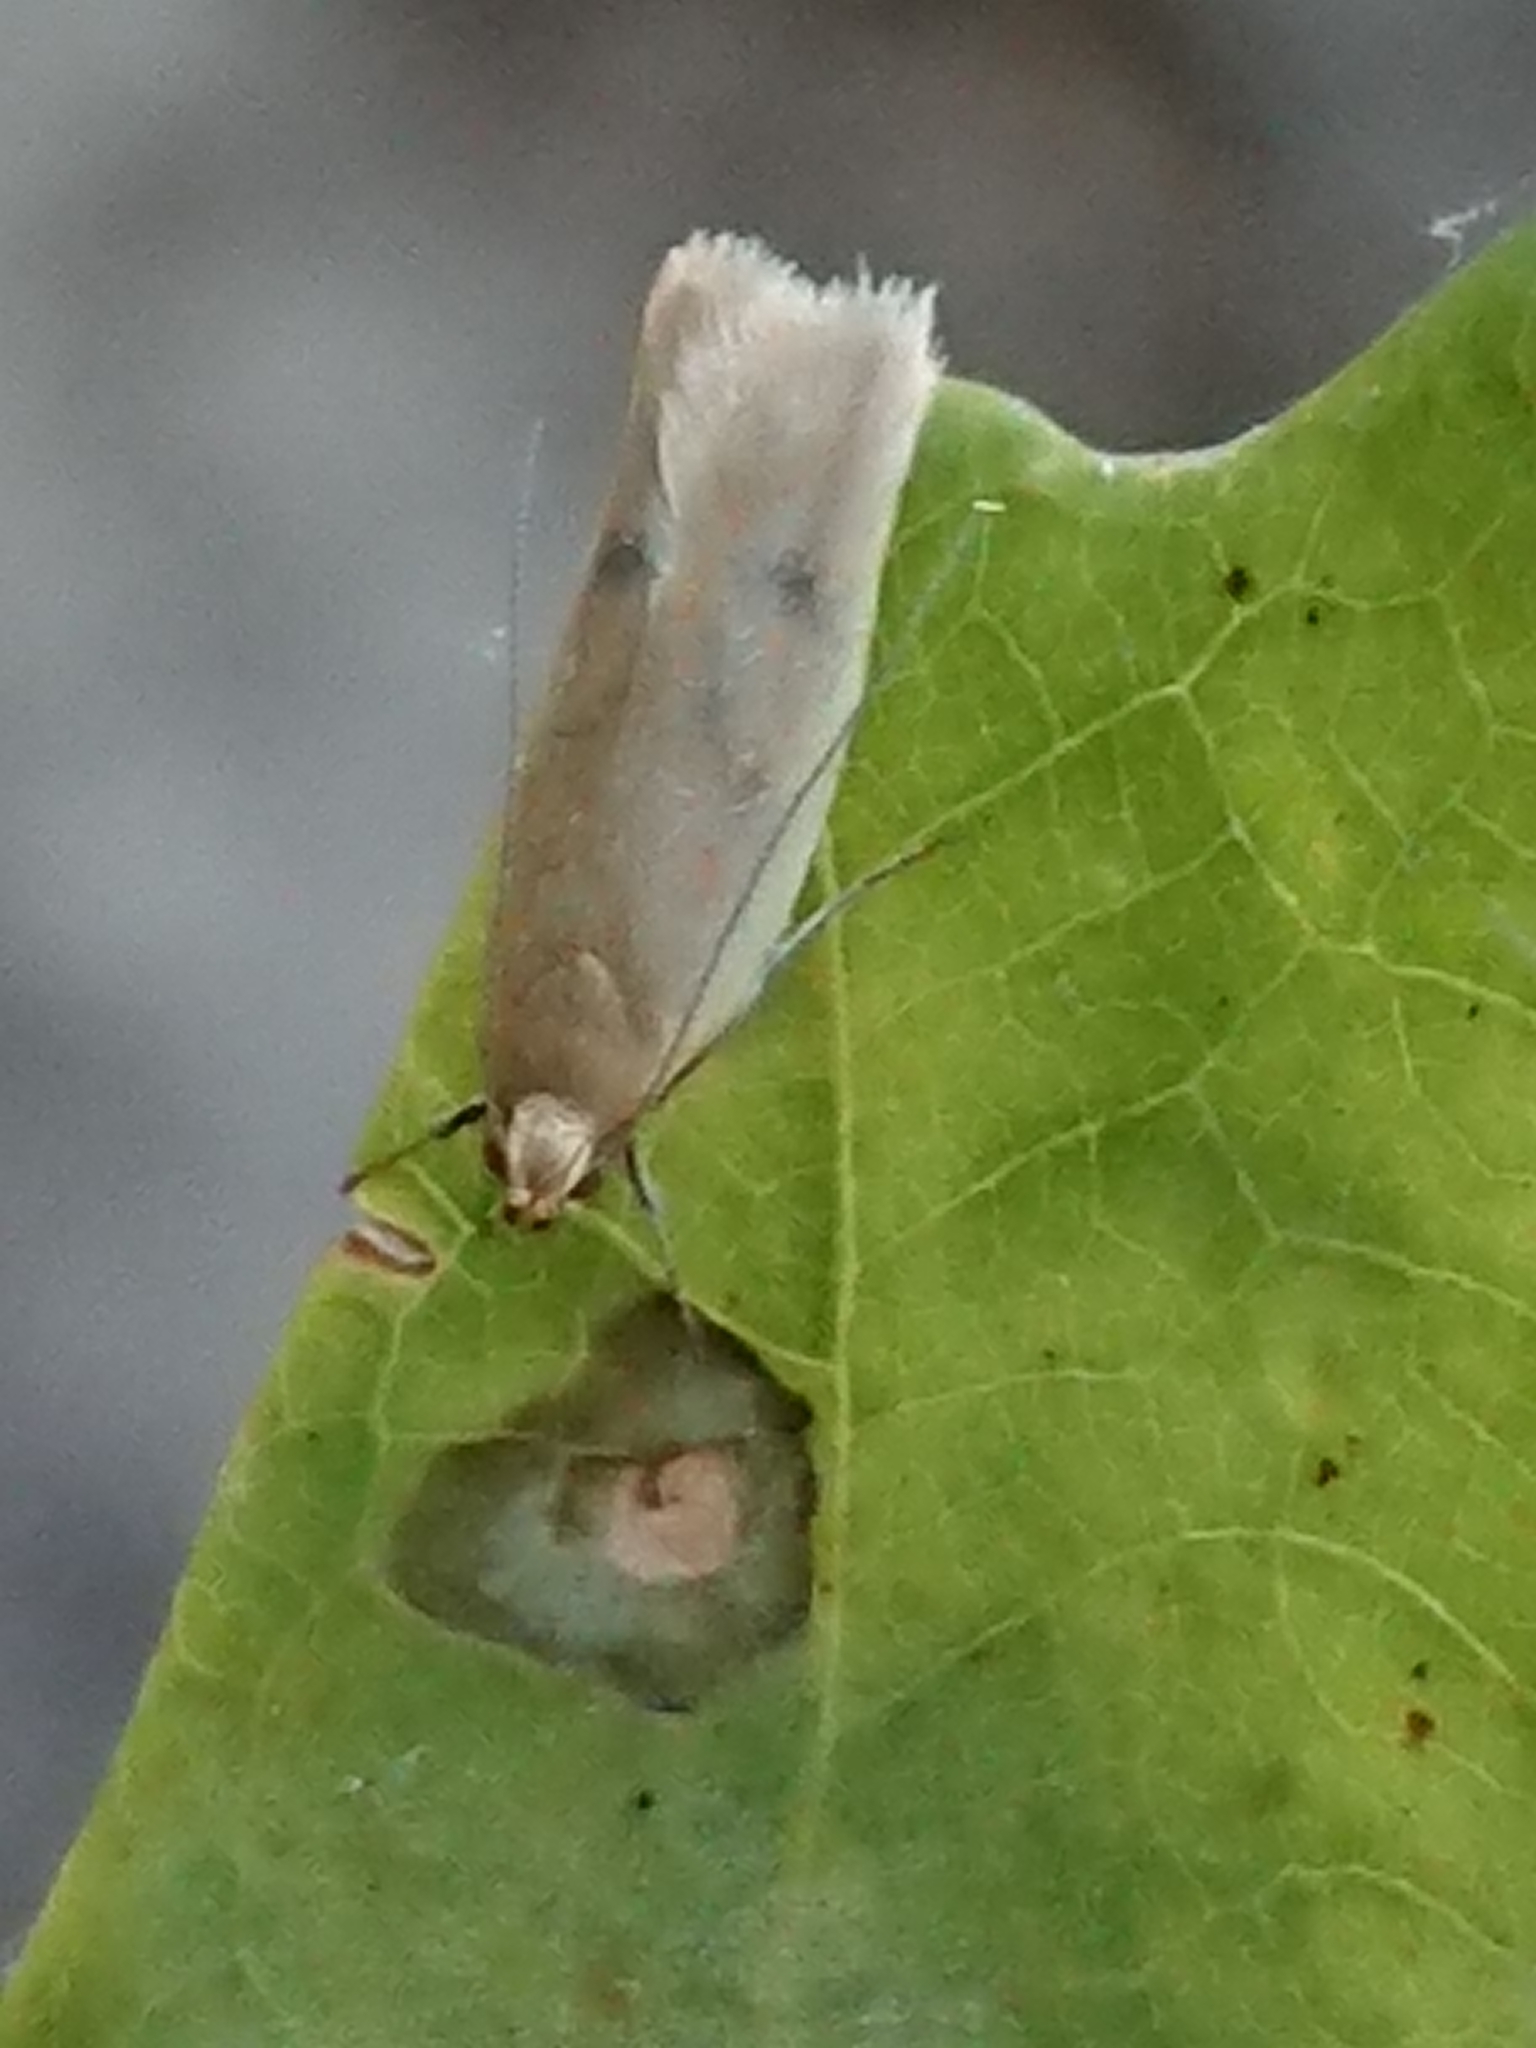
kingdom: Animalia
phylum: Arthropoda
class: Insecta
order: Lepidoptera
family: Oecophoridae
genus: Gymnobathra
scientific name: Gymnobathra sarcoxantha
